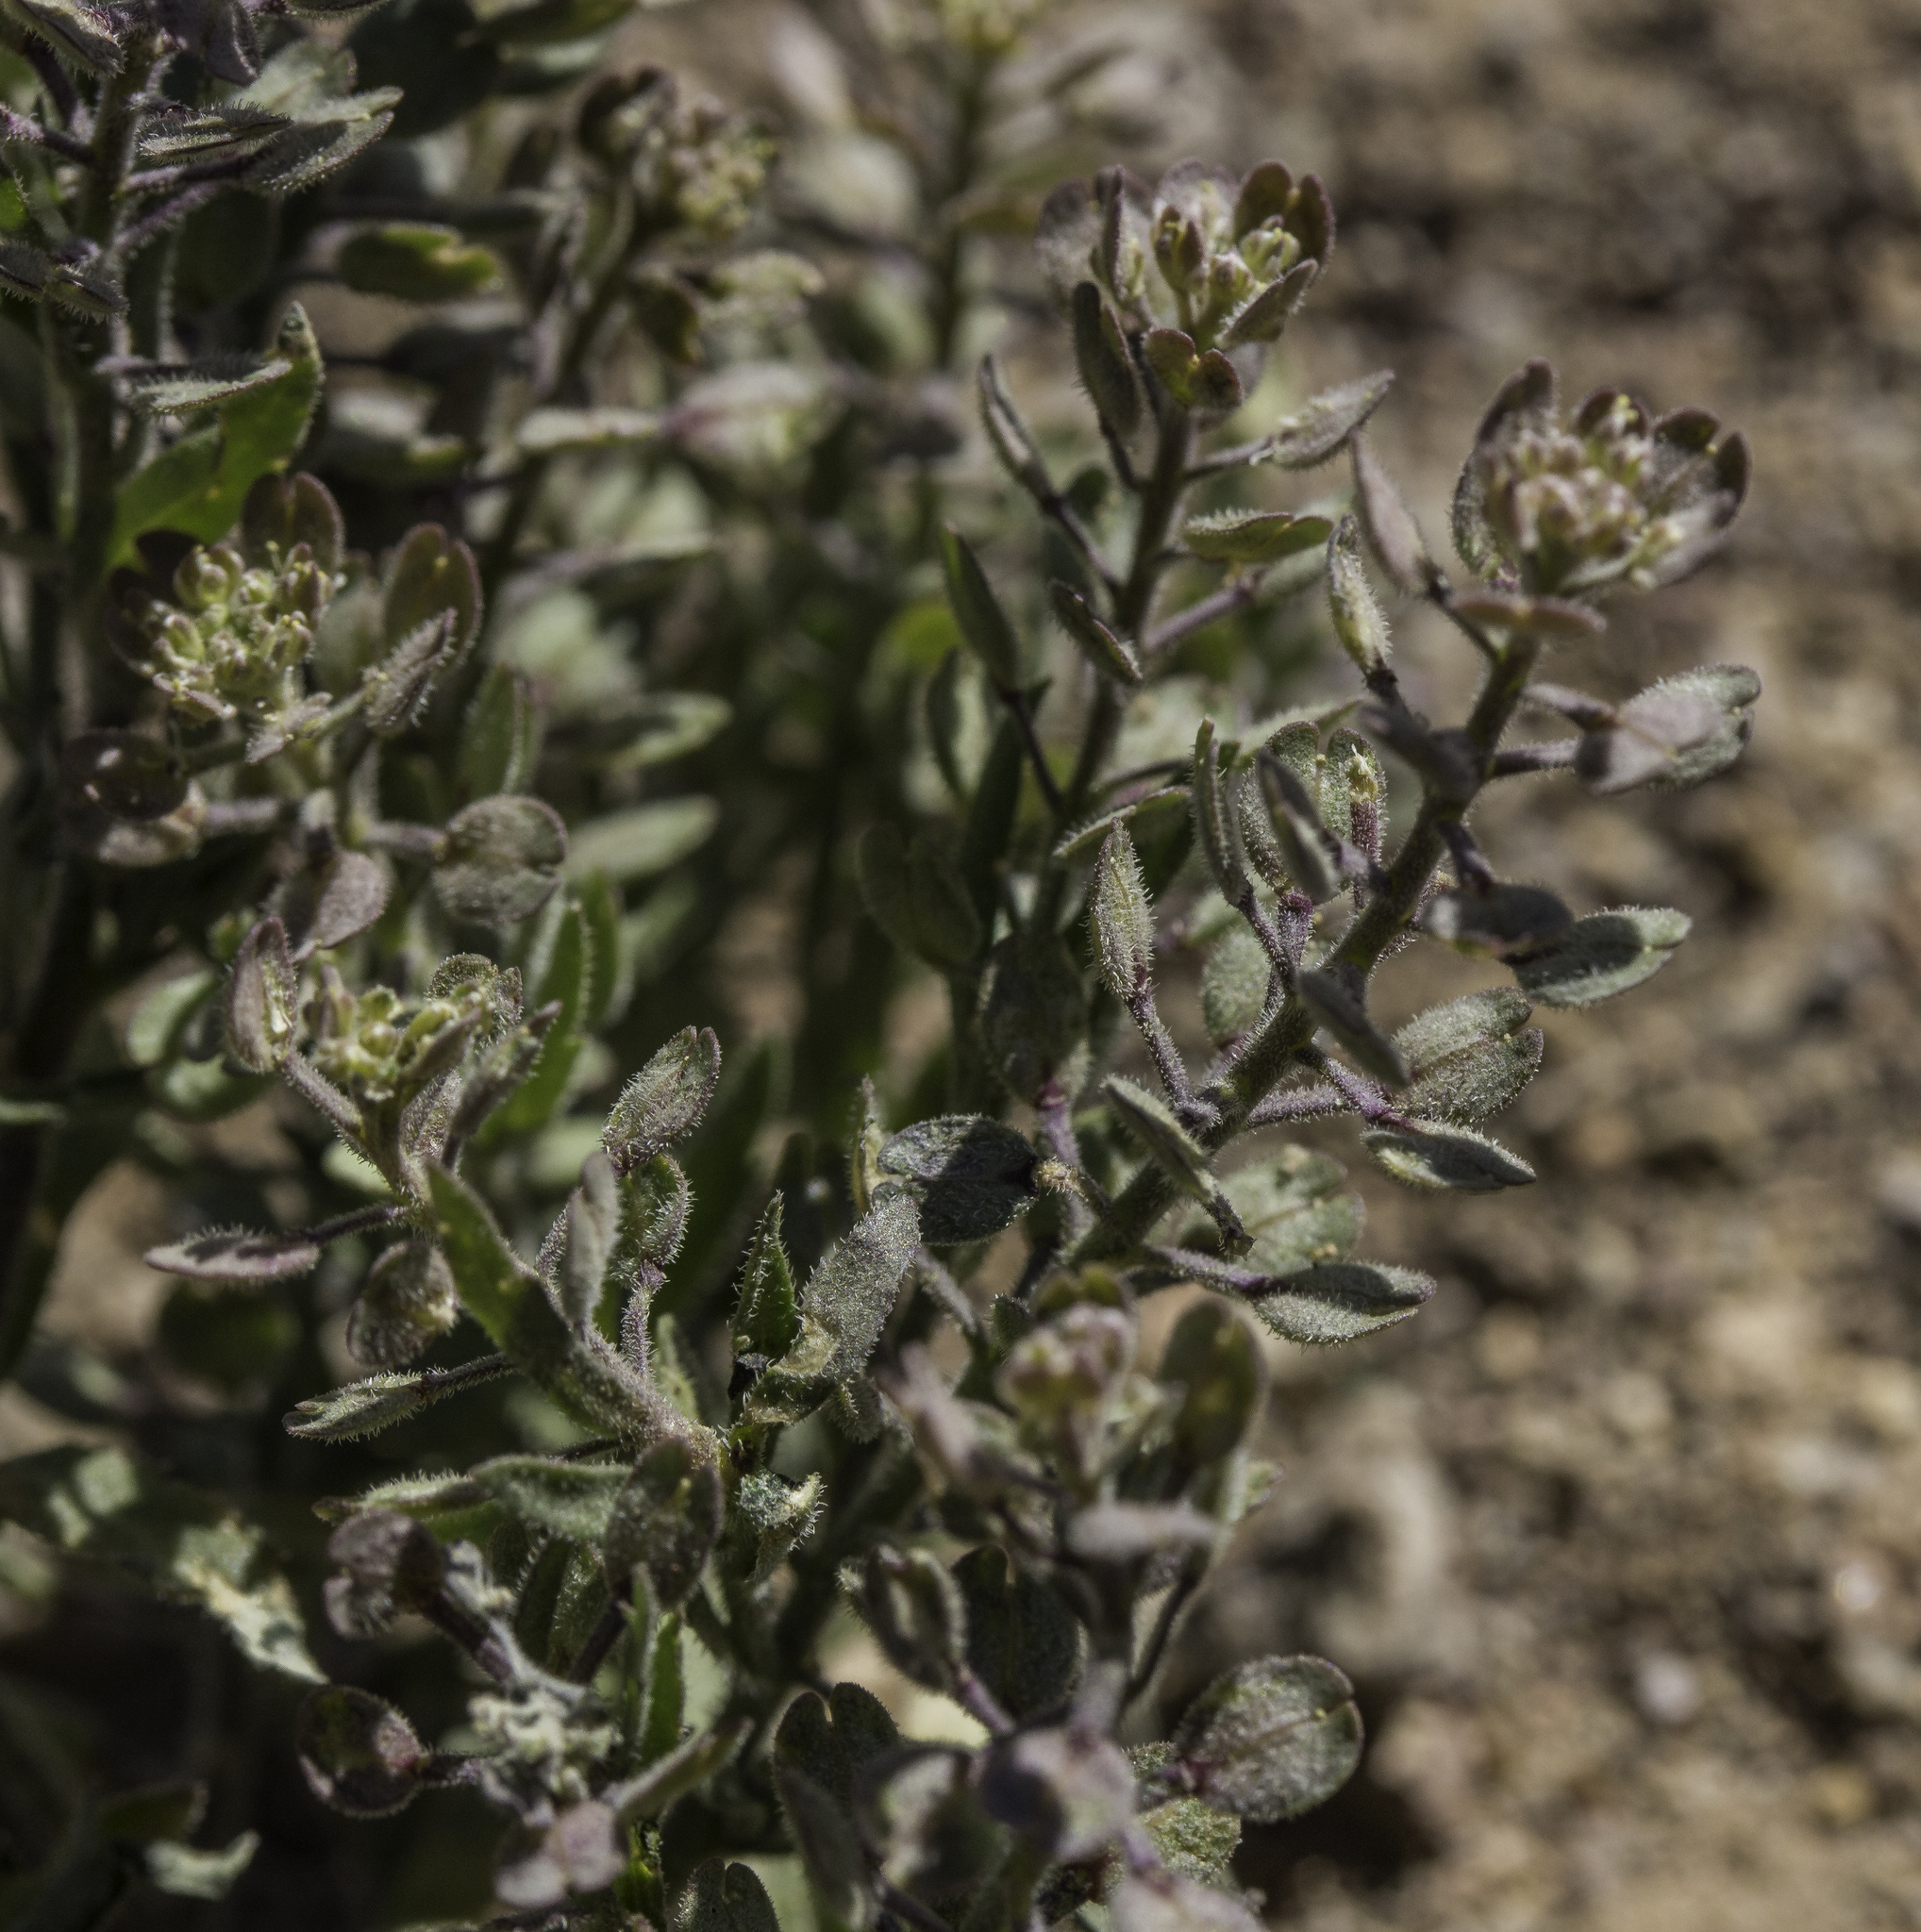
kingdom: Plantae
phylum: Tracheophyta
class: Magnoliopsida
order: Brassicales
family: Brassicaceae
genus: Lepidium
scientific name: Lepidium lasiocarpum
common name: Hairy-pod pepperwort
